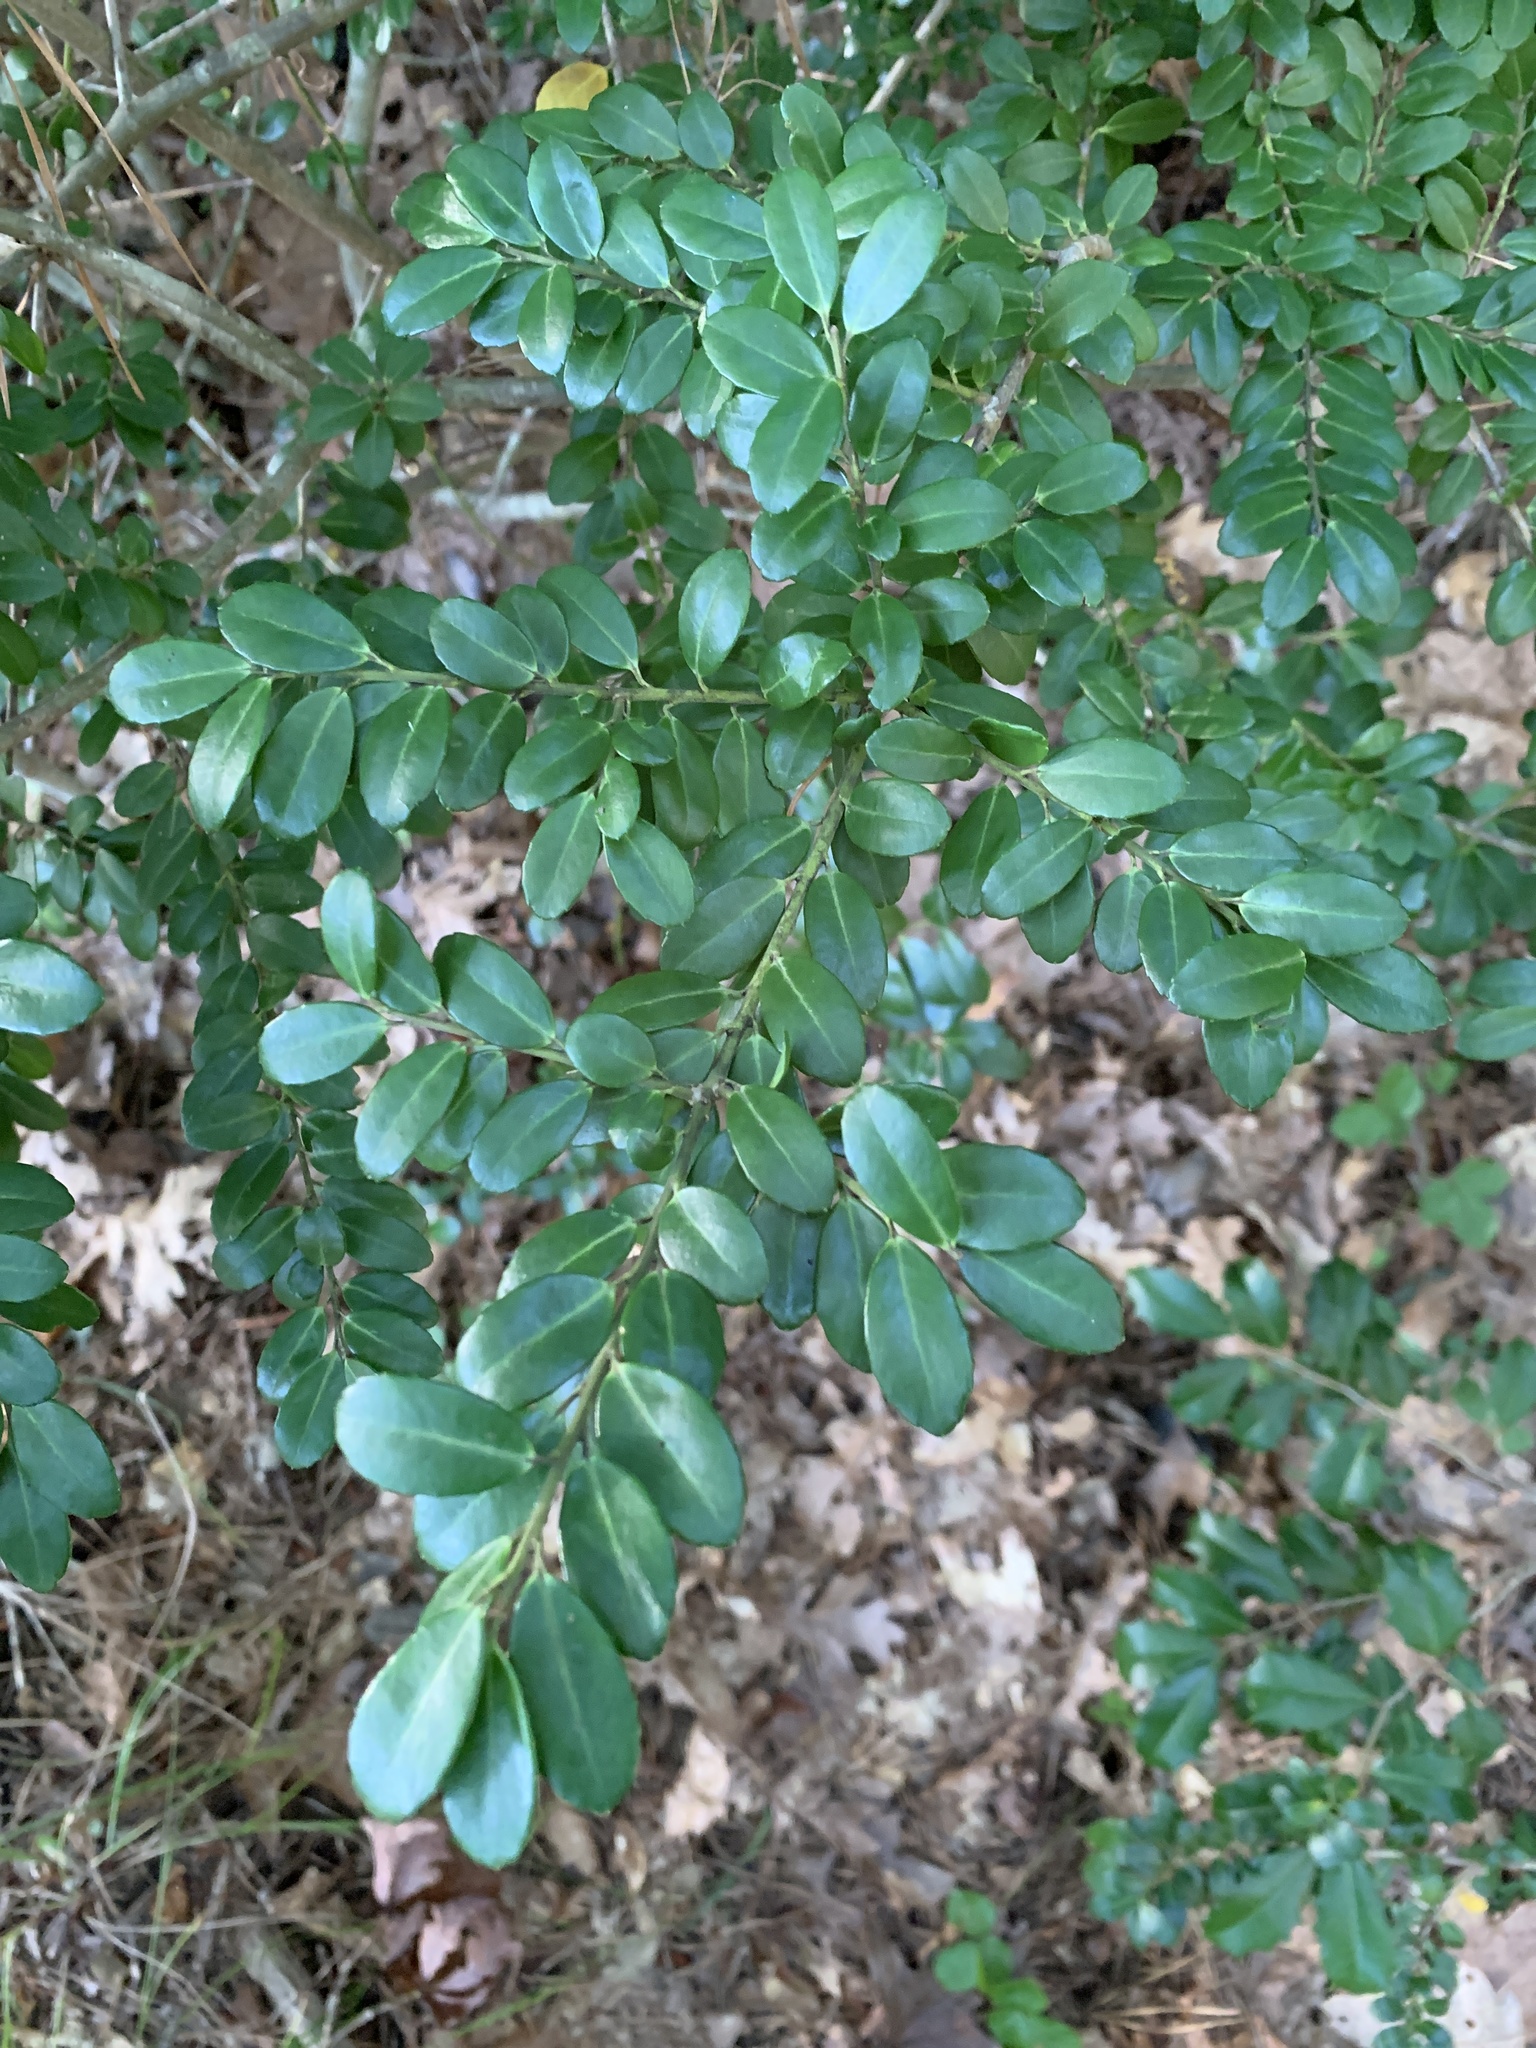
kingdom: Plantae
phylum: Tracheophyta
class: Magnoliopsida
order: Aquifoliales
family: Aquifoliaceae
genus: Ilex
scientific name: Ilex crenata
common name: Japanese holly
